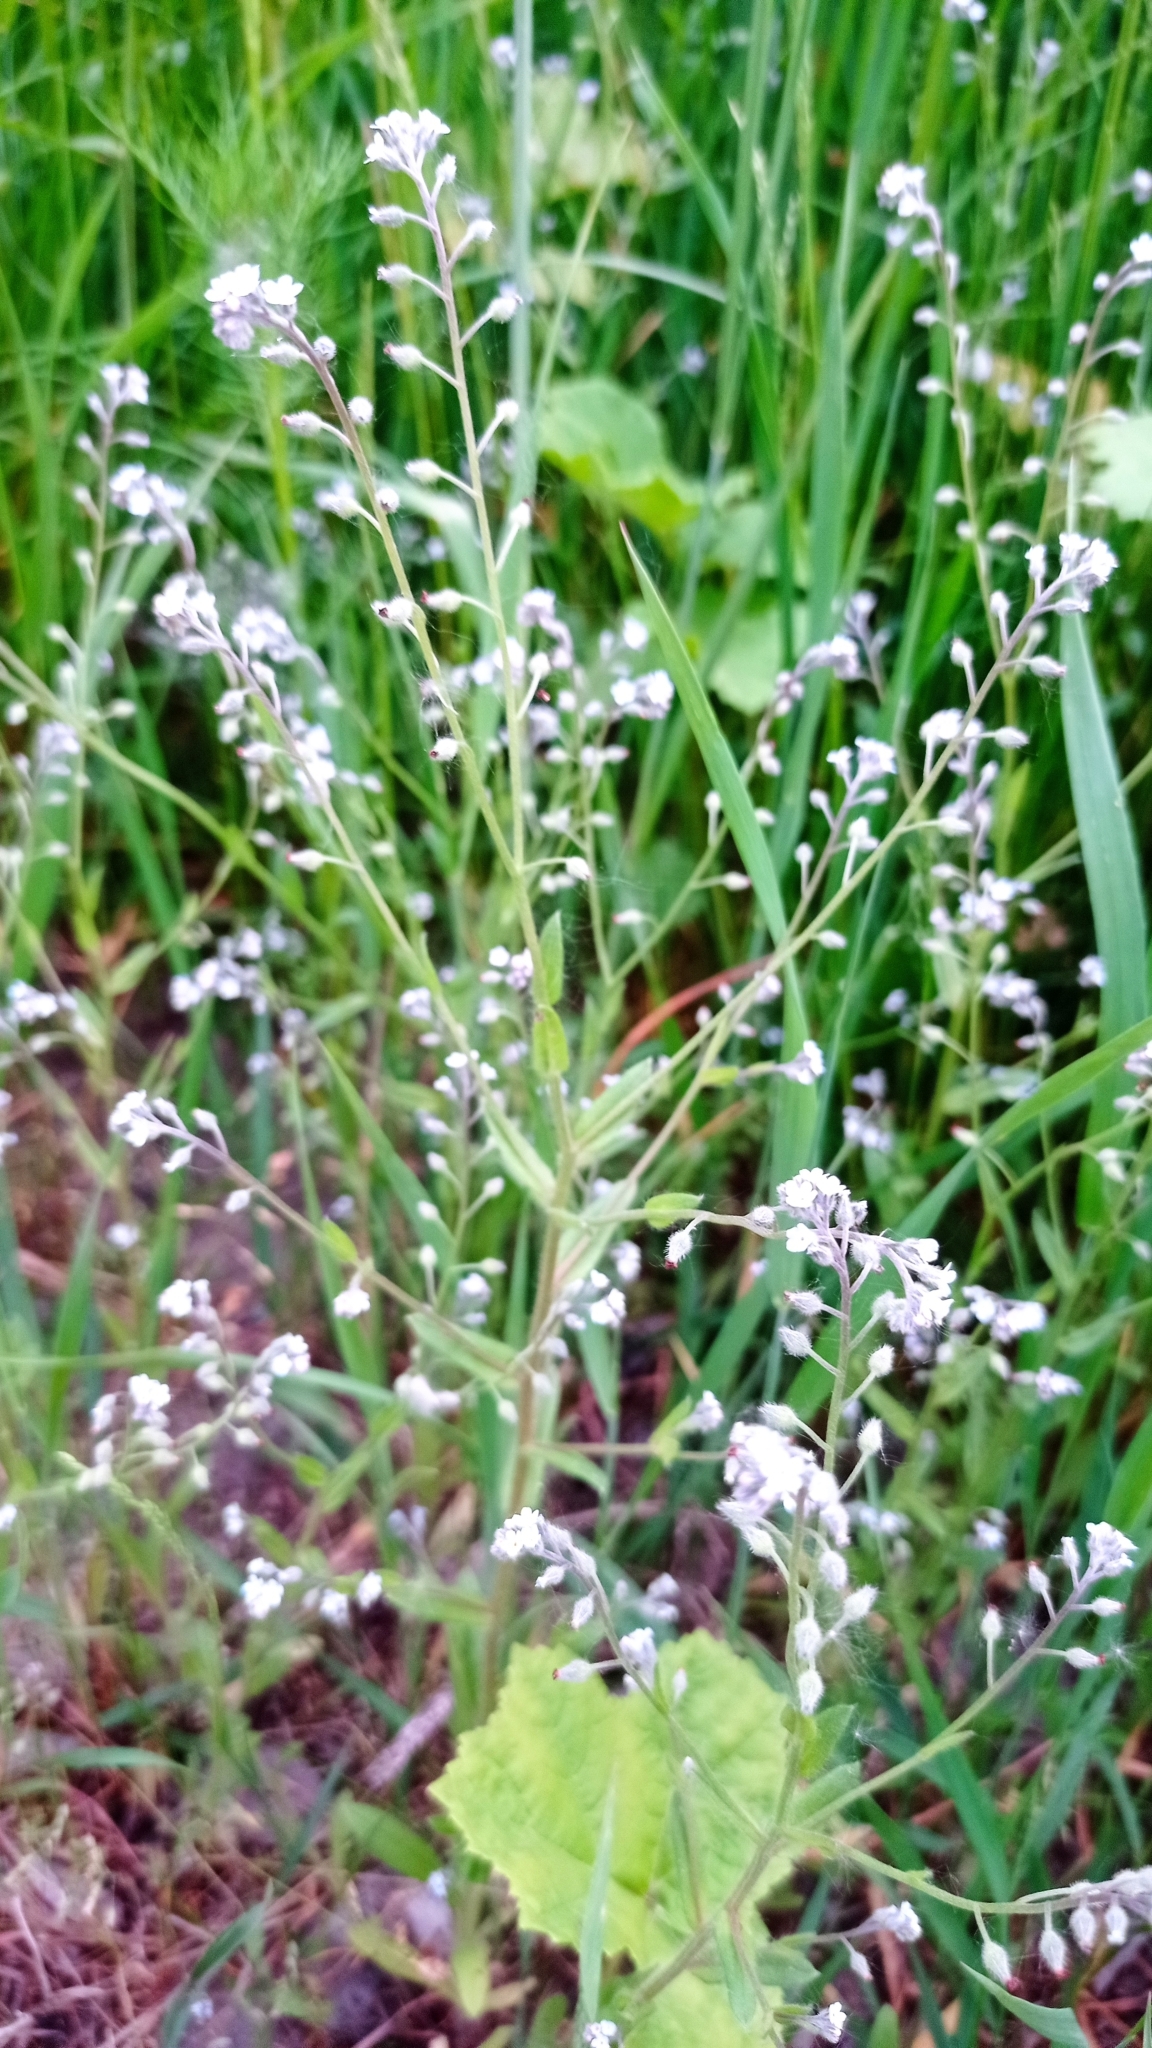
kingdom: Plantae
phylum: Tracheophyta
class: Magnoliopsida
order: Boraginales
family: Boraginaceae
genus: Myosotis
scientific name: Myosotis arvensis
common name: Field forget-me-not
